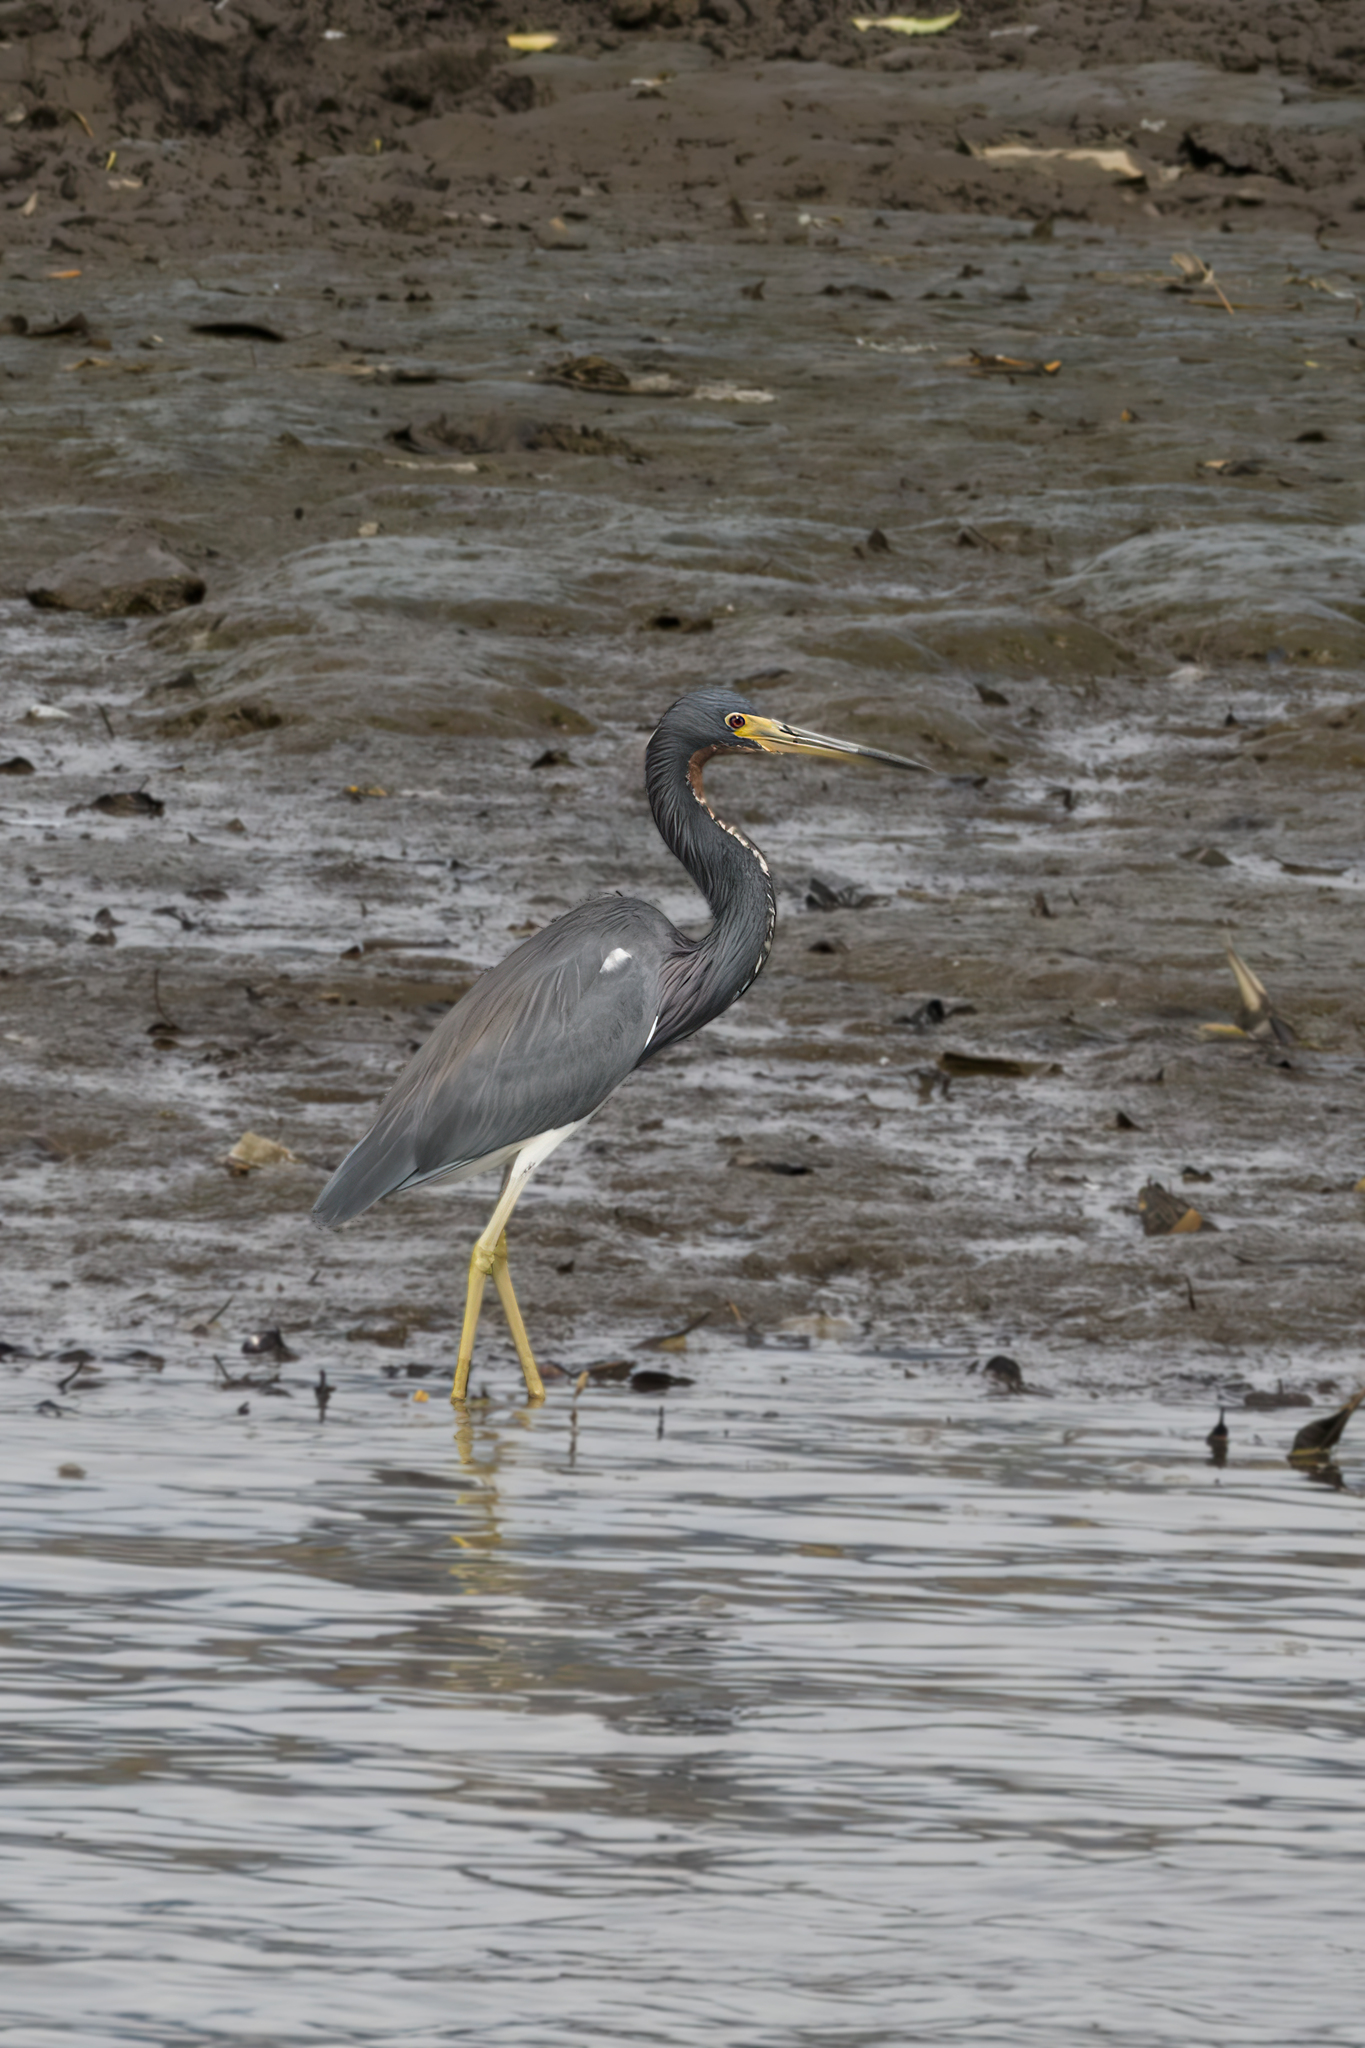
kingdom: Animalia
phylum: Chordata
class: Aves
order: Pelecaniformes
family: Ardeidae
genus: Egretta
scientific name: Egretta tricolor
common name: Tricolored heron
